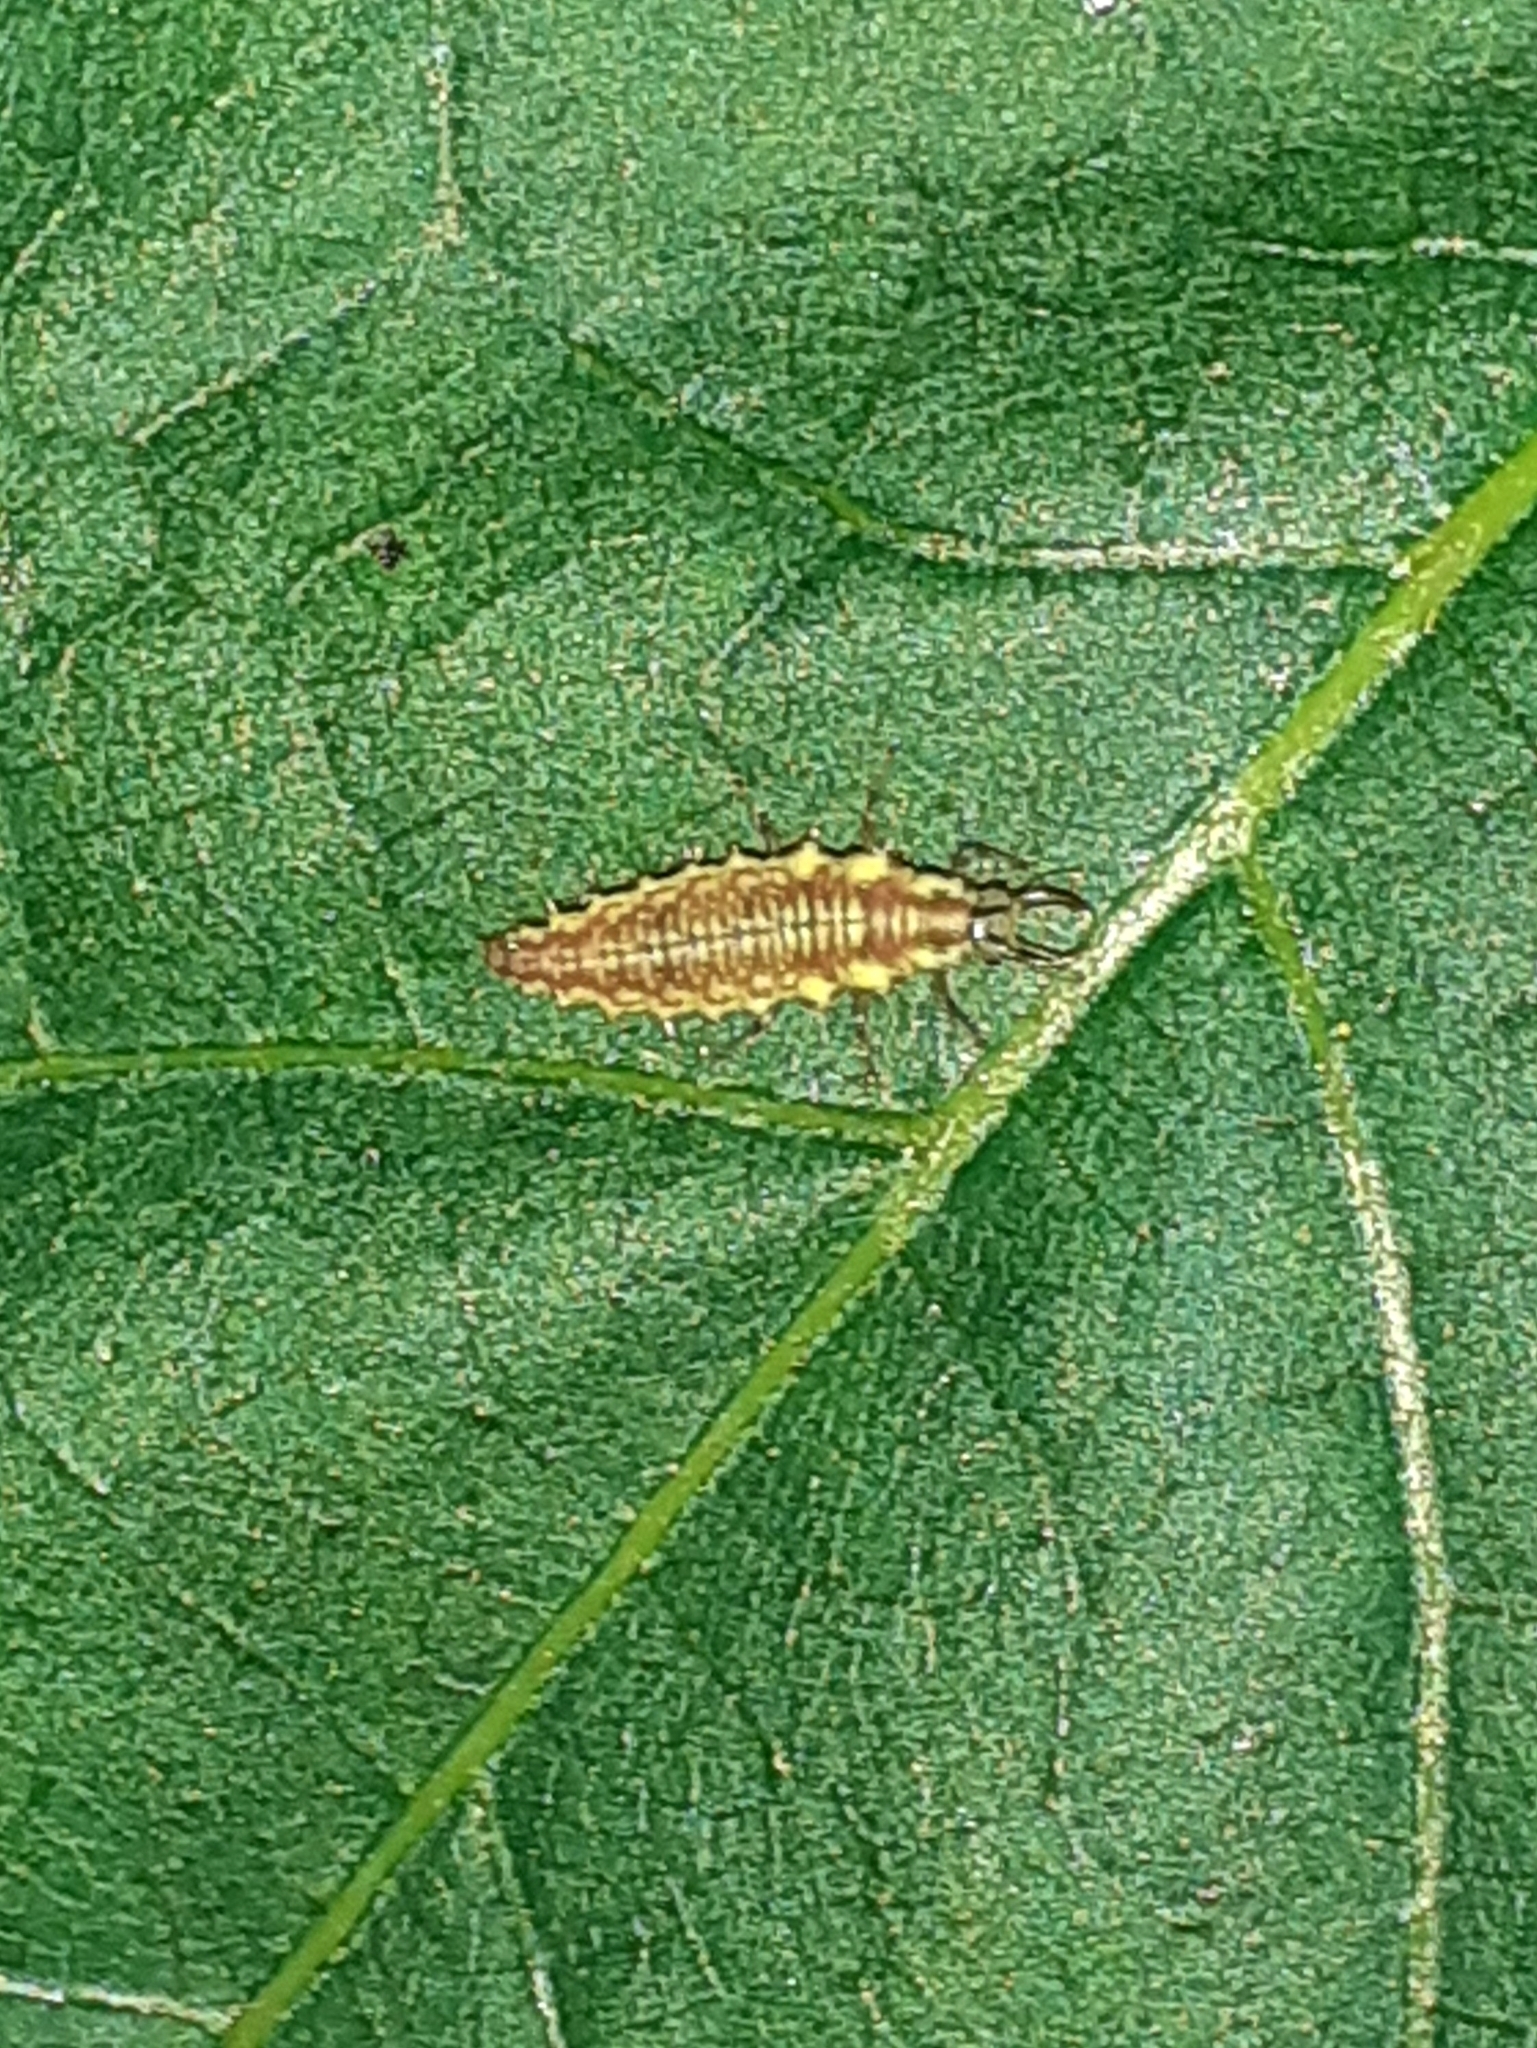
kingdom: Animalia
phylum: Arthropoda
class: Insecta
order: Neuroptera
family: Chrysopidae
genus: Chrysoperla
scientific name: Chrysoperla
